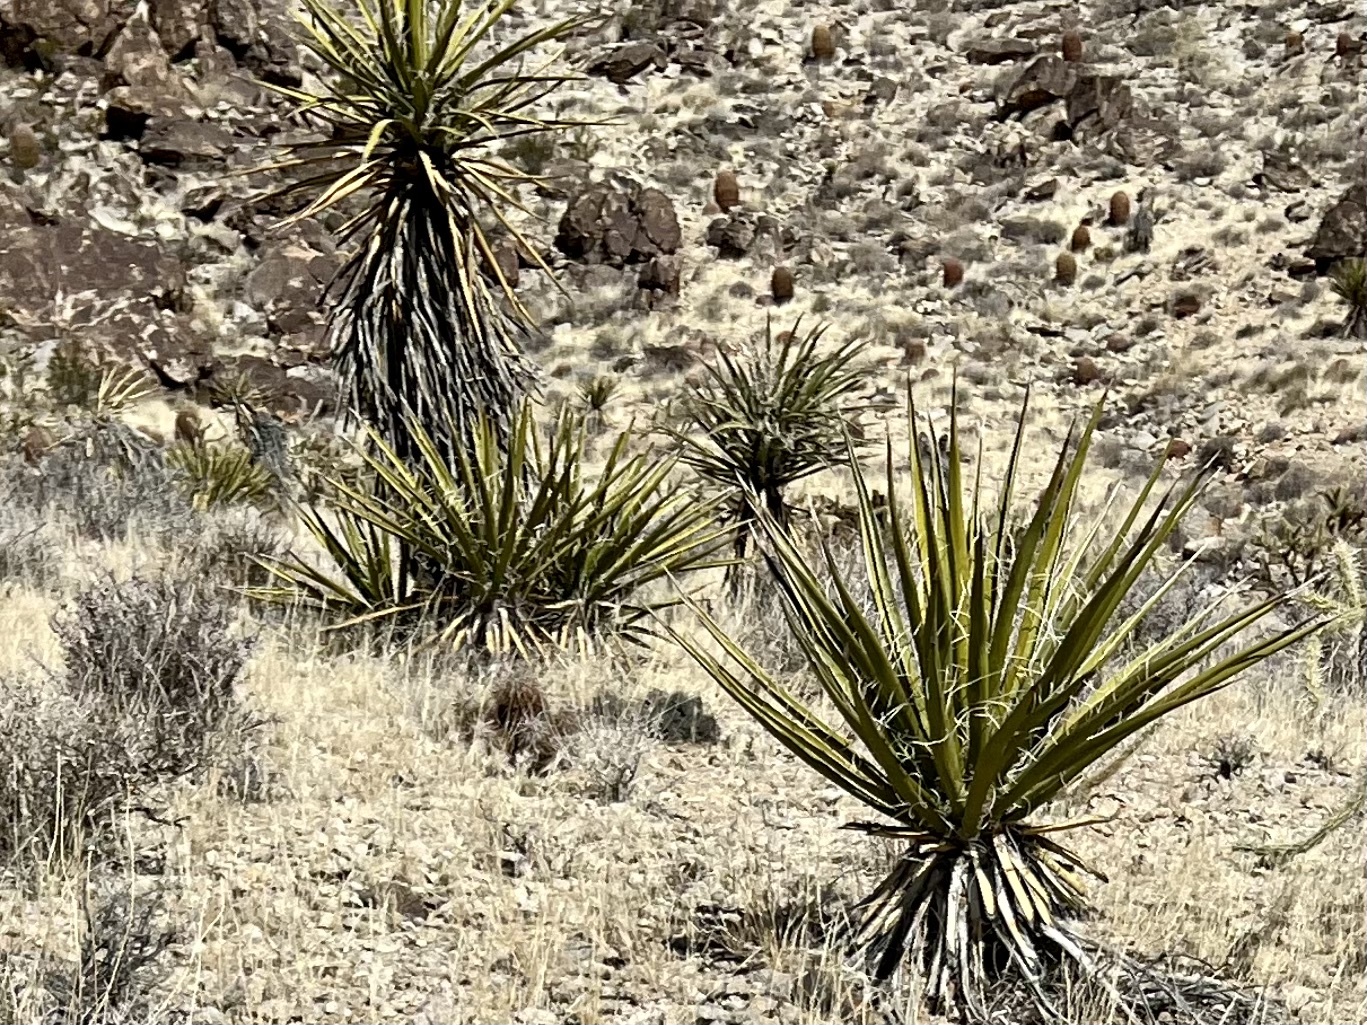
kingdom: Plantae
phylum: Tracheophyta
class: Liliopsida
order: Asparagales
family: Asparagaceae
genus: Yucca
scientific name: Yucca schidigera
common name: Mojave yucca
